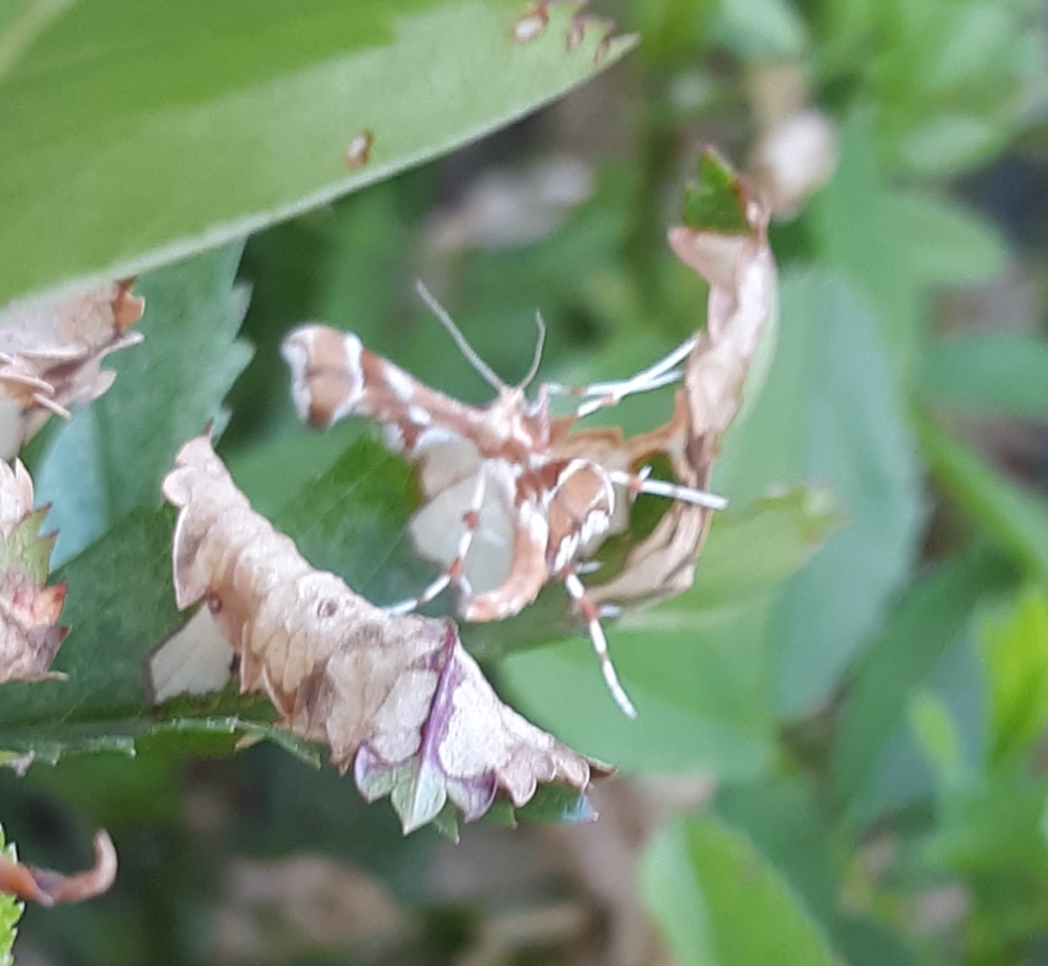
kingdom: Animalia
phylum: Arthropoda
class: Insecta
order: Lepidoptera
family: Pterophoridae
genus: Cnaemidophorus
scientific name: Cnaemidophorus rhododactyla
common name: Rose plume
